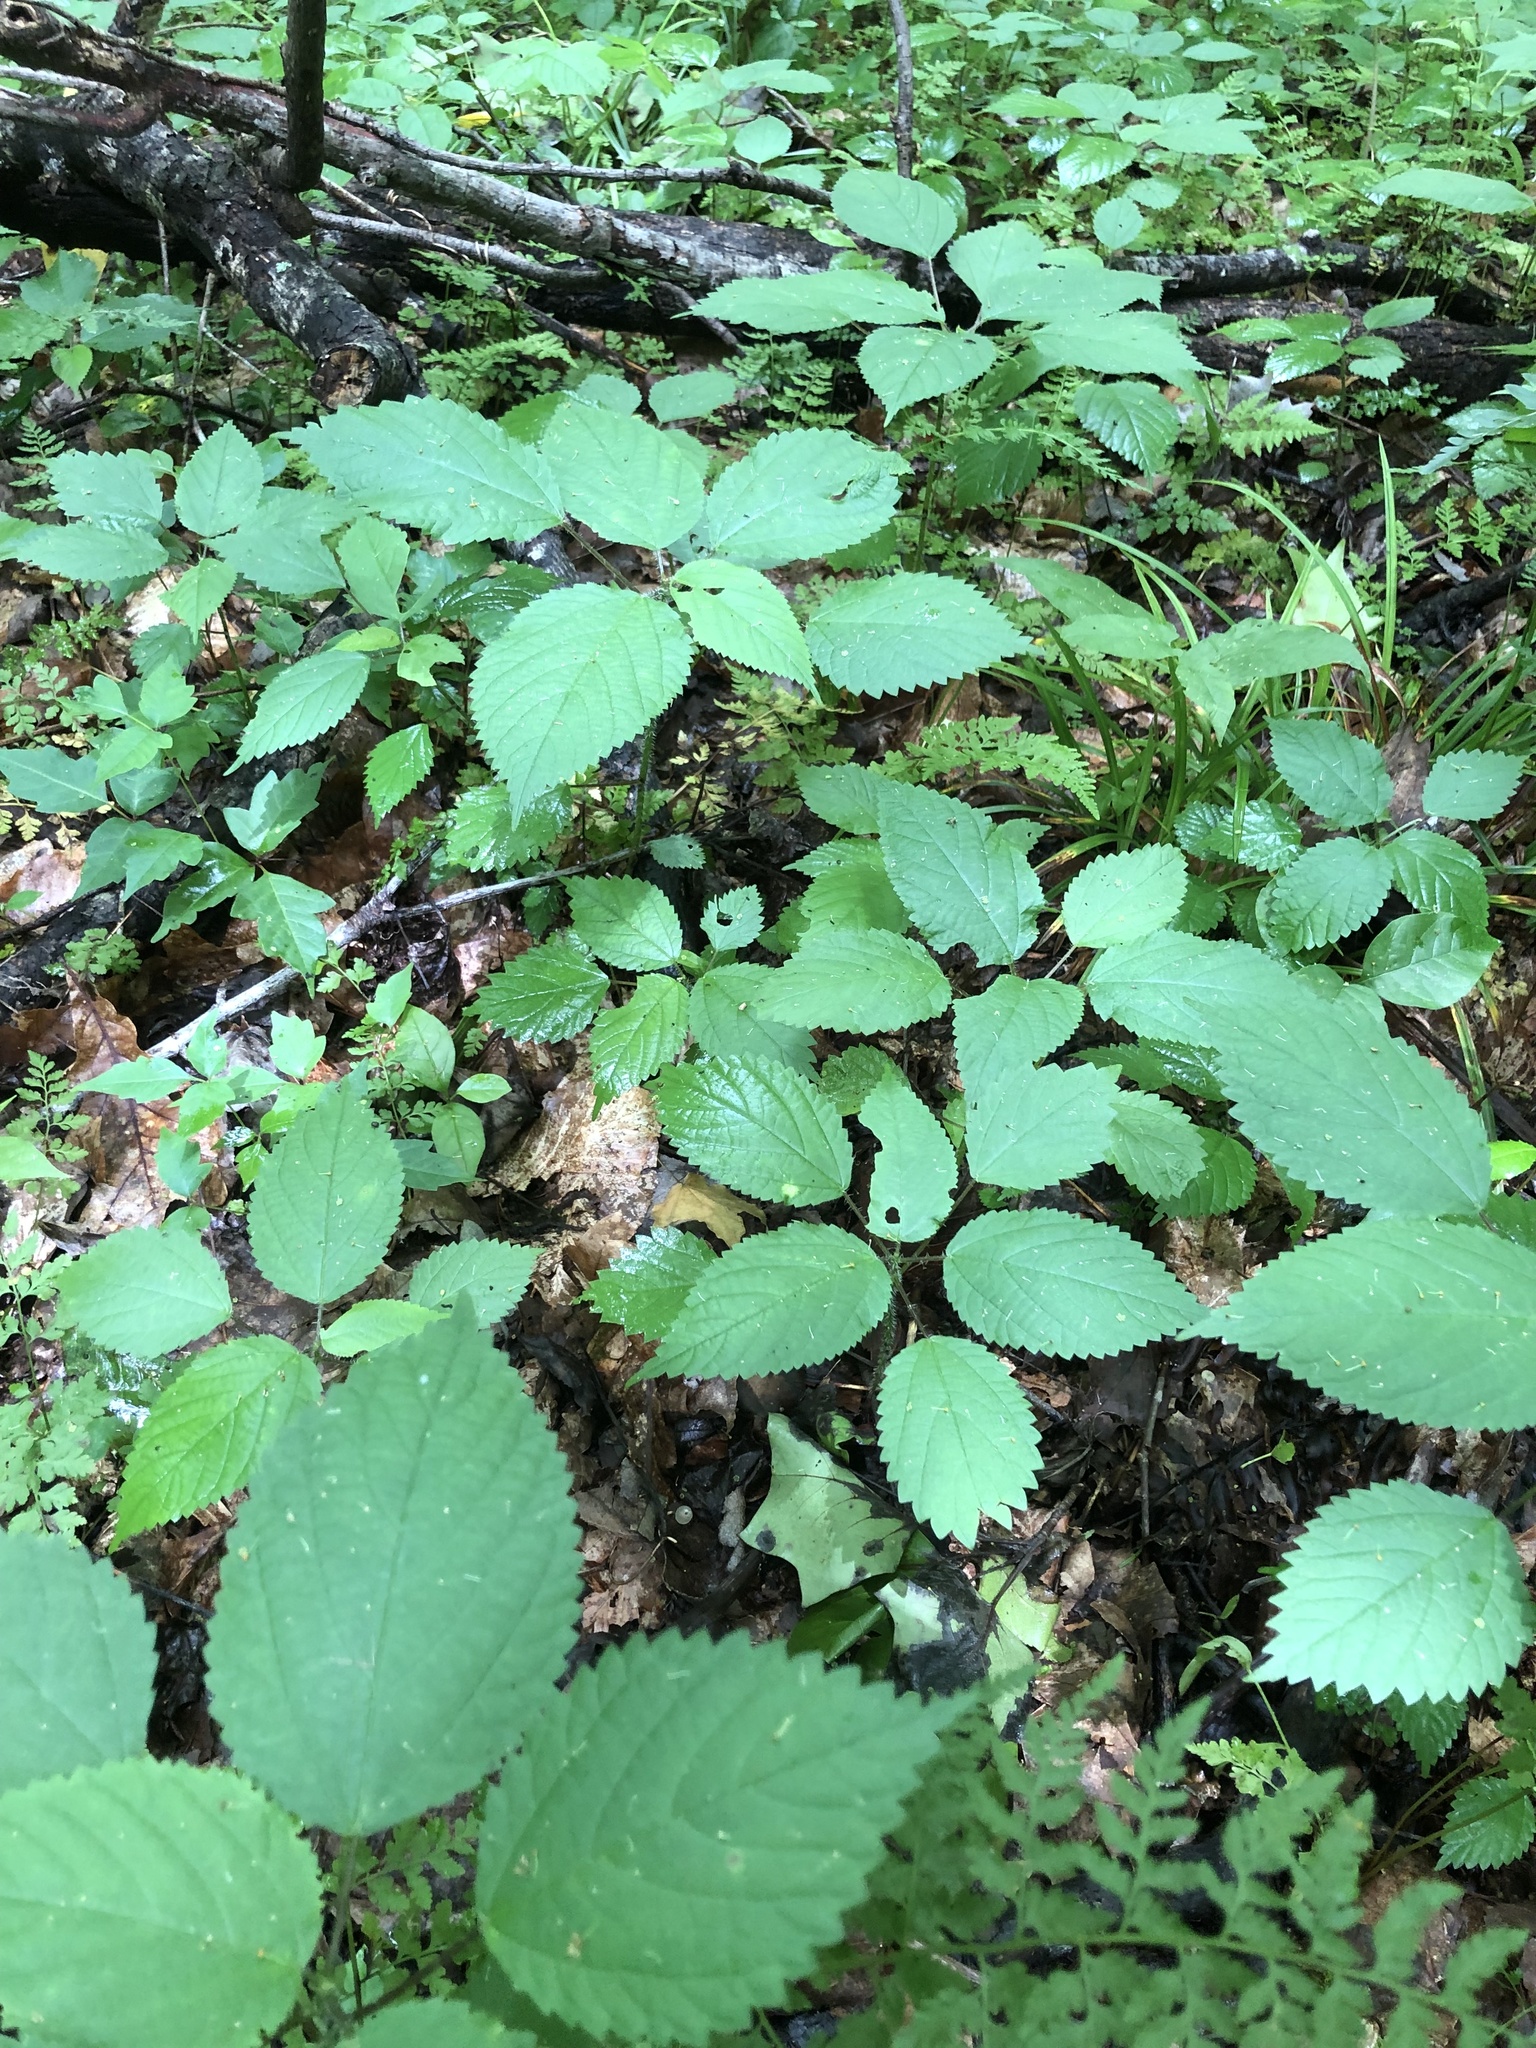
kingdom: Plantae
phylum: Tracheophyta
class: Magnoliopsida
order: Rosales
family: Urticaceae
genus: Laportea
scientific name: Laportea canadensis
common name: Canada nettle
